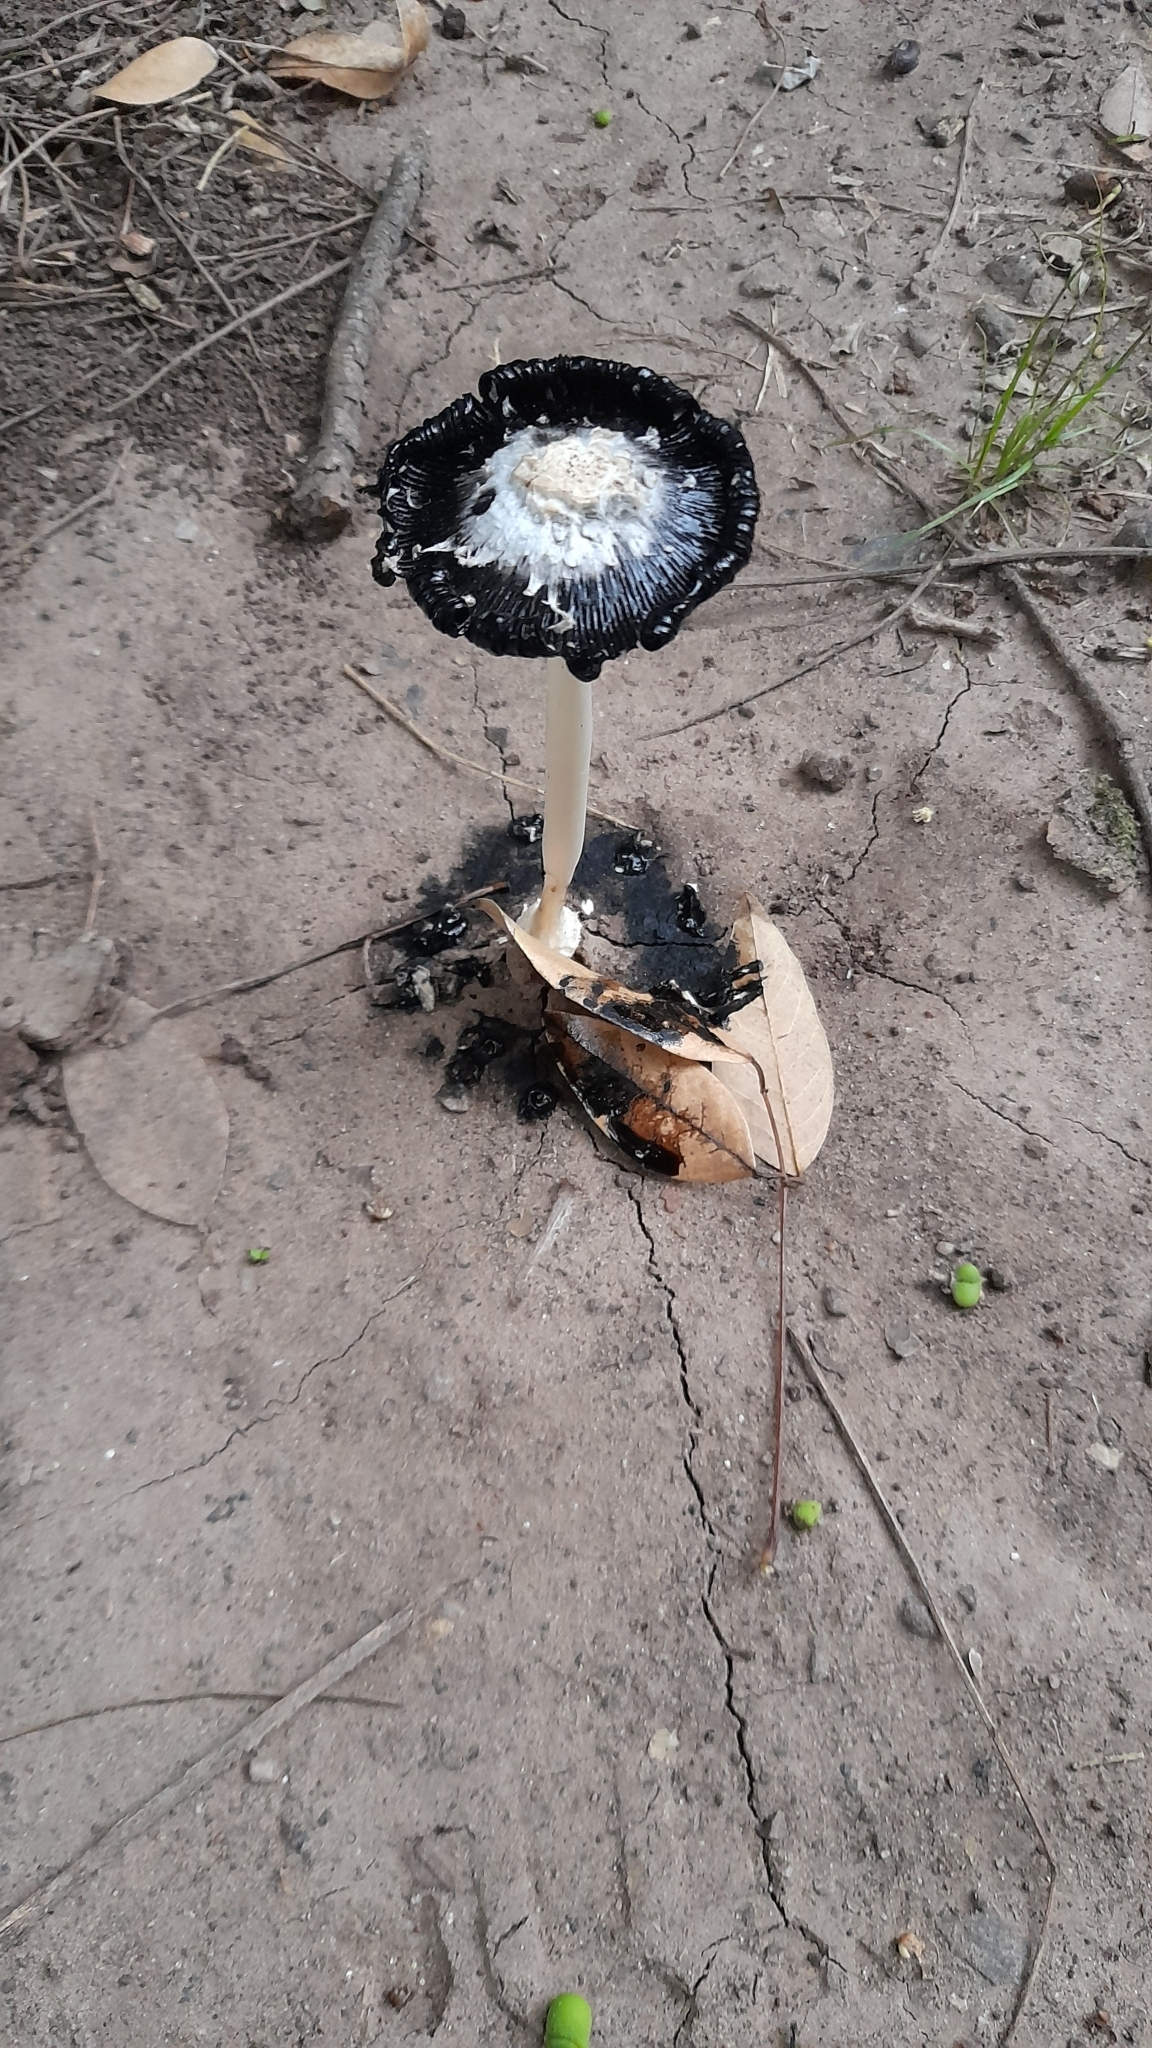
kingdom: Fungi
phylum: Basidiomycota
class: Agaricomycetes
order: Agaricales
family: Agaricaceae
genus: Coprinus
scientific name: Coprinus comatus
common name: Lawyer's wig
